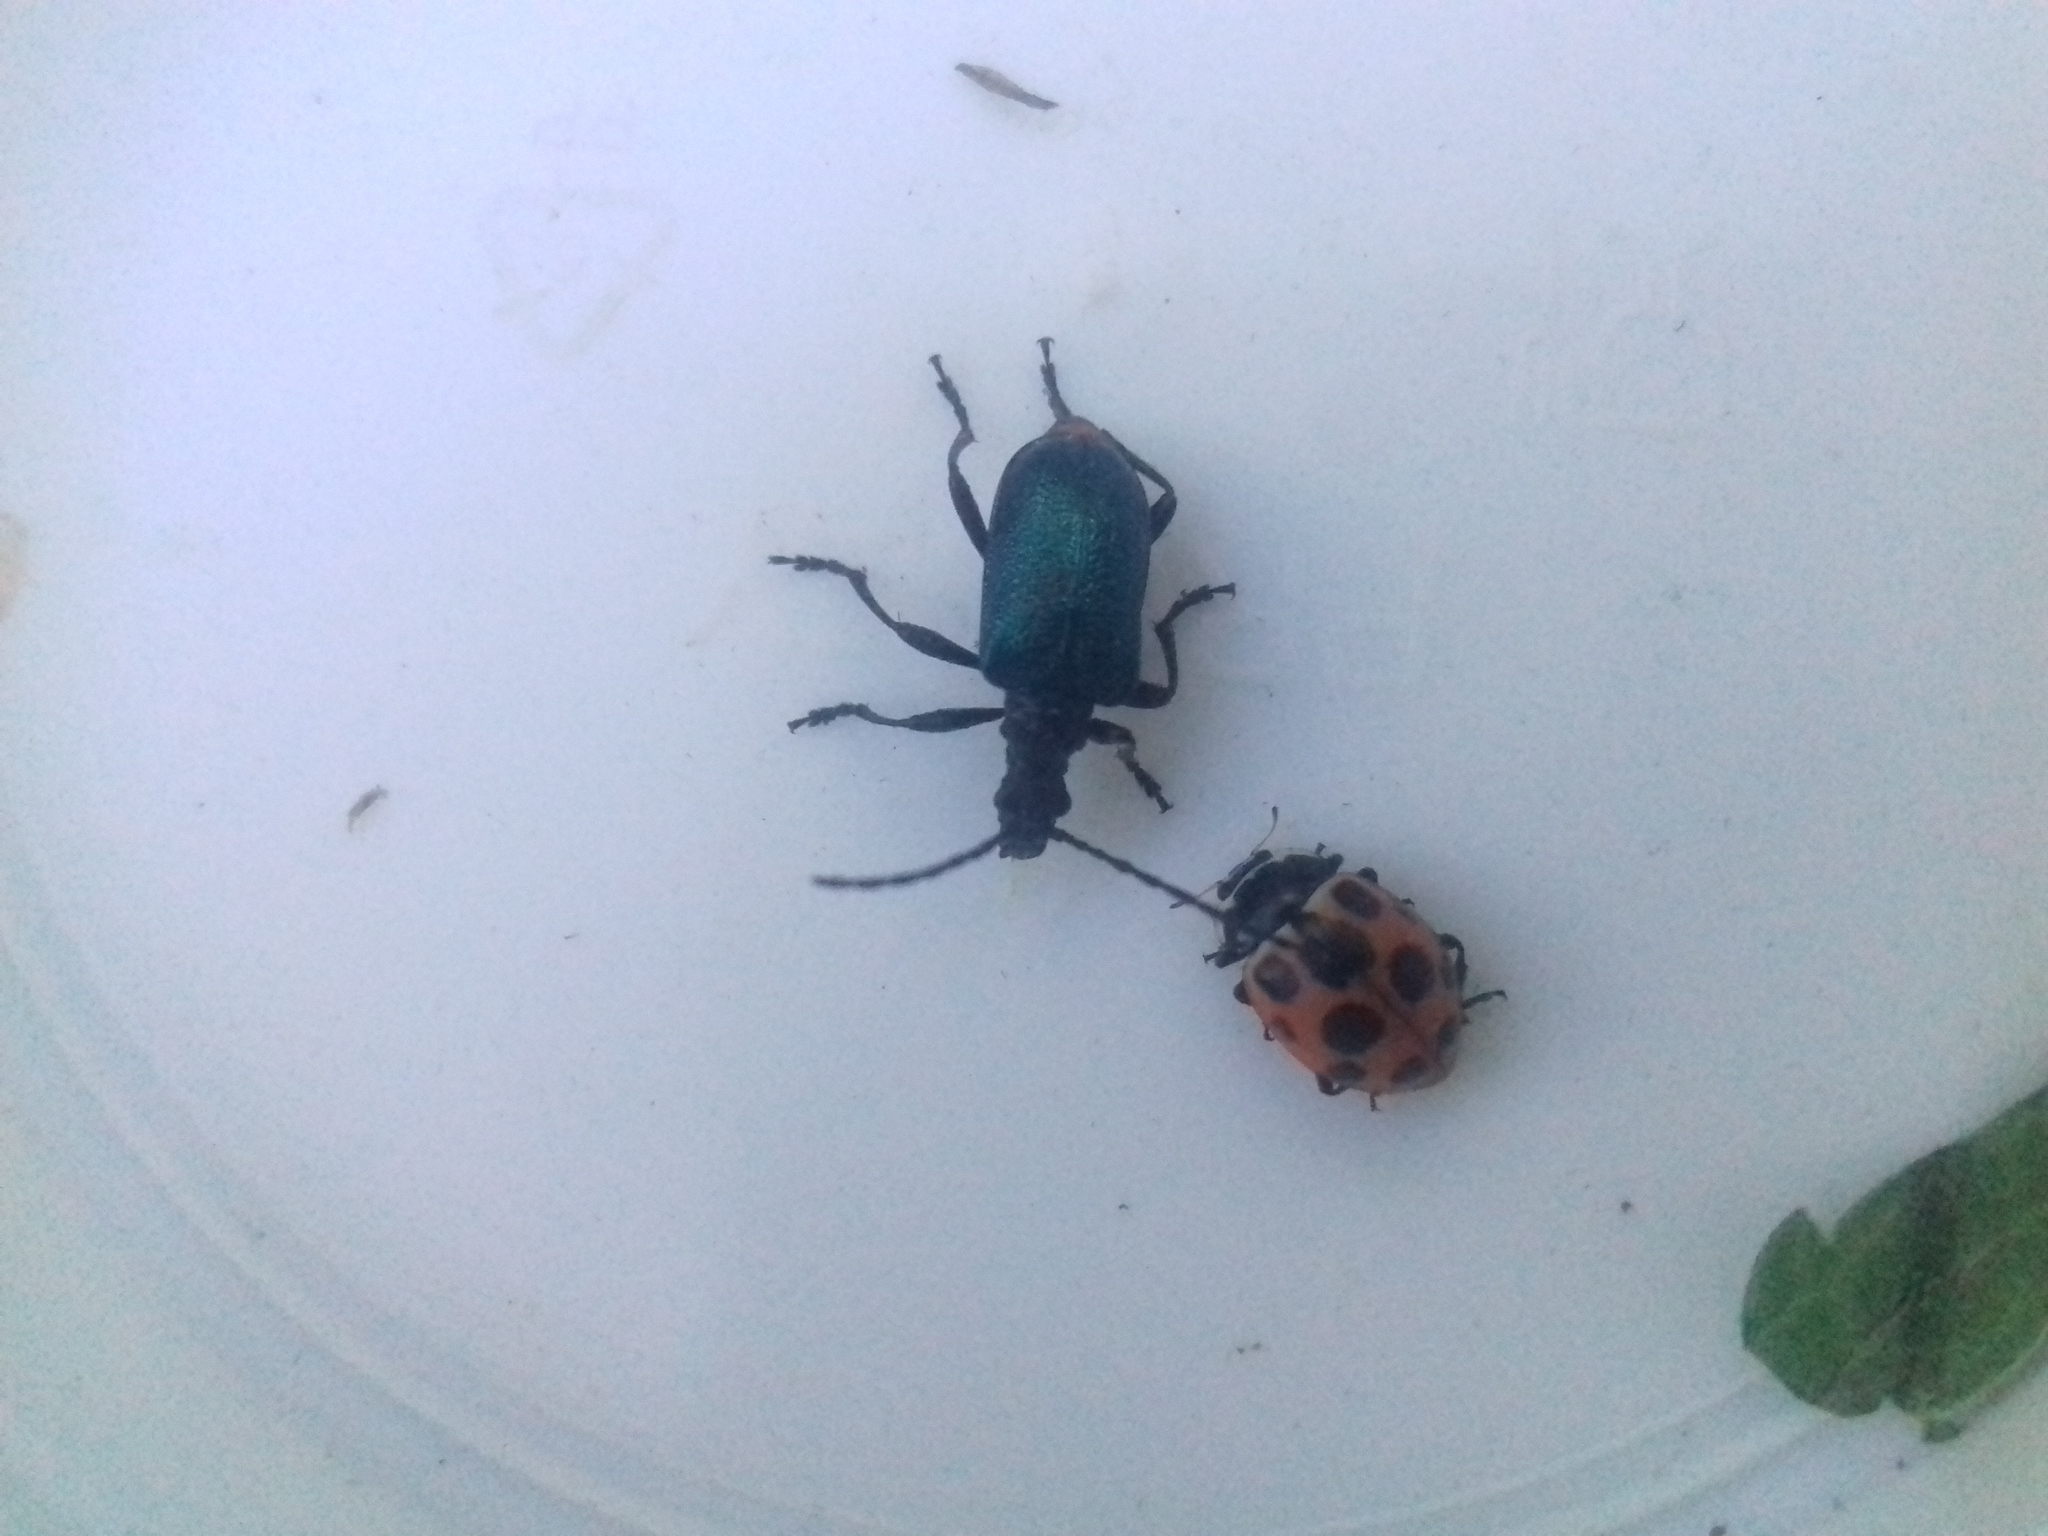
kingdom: Animalia
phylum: Arthropoda
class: Insecta
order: Coleoptera
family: Cerambycidae
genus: Gaurotes
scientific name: Gaurotes virginea
